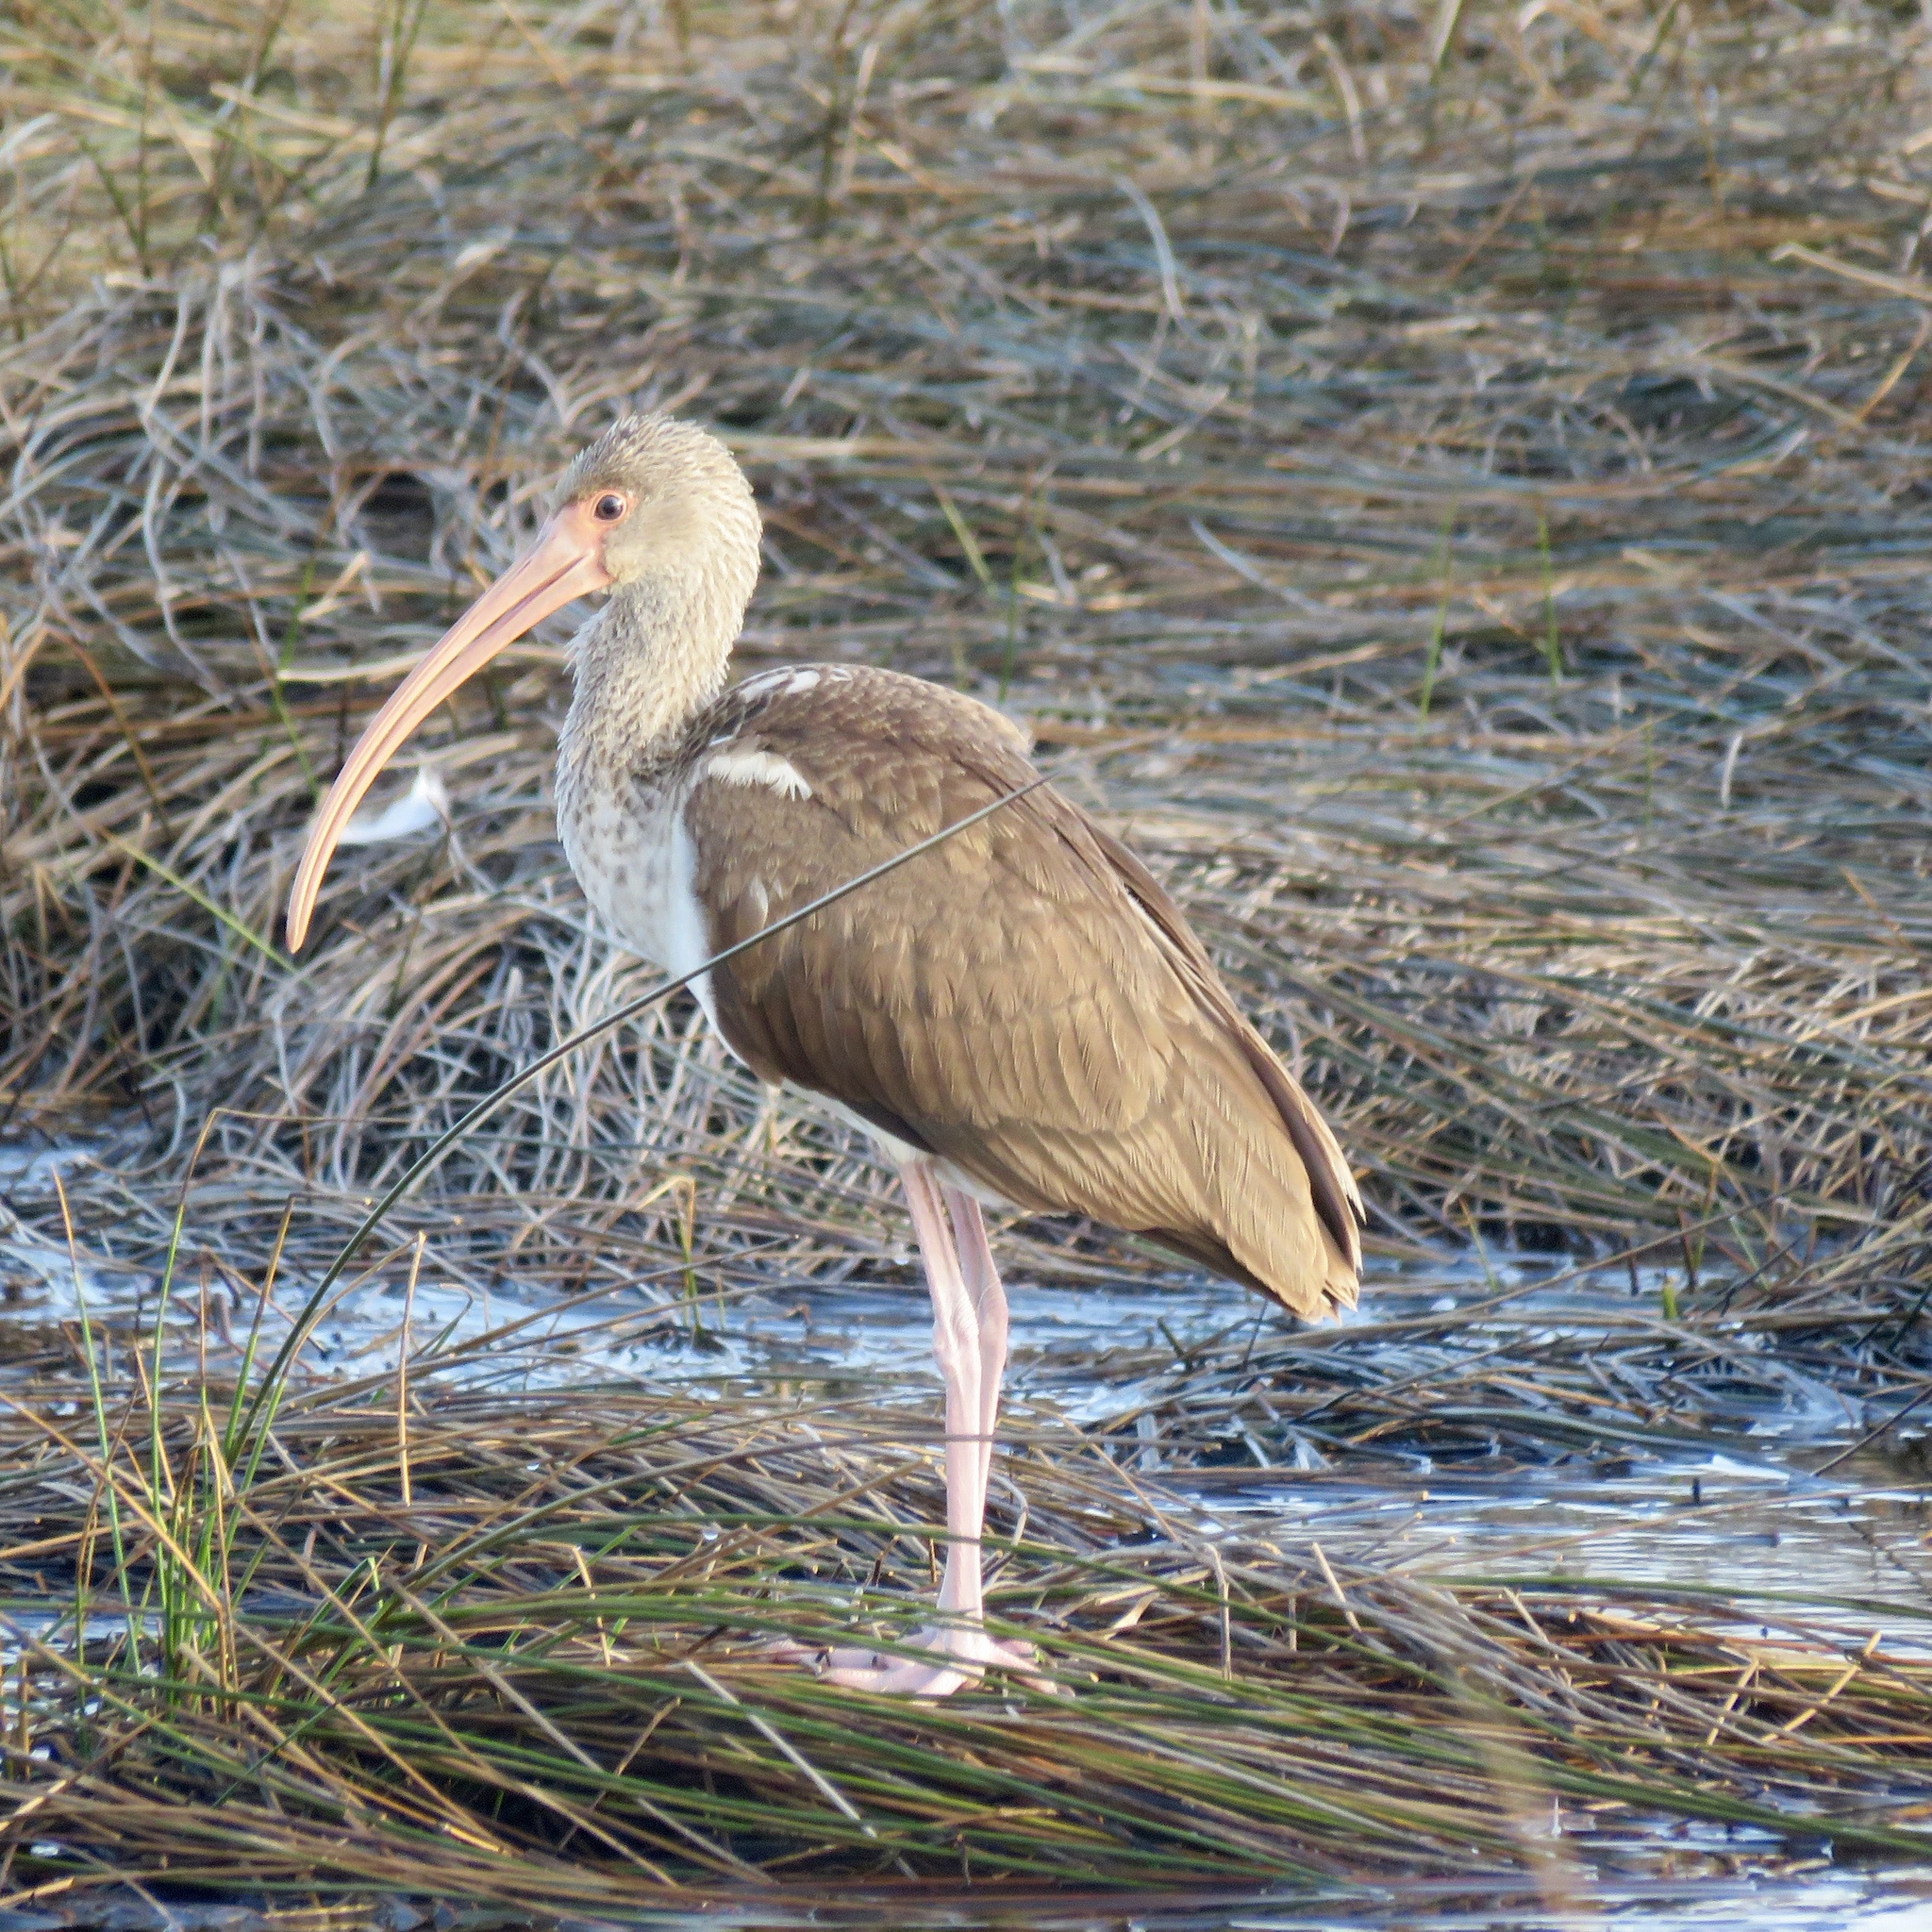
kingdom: Animalia
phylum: Chordata
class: Aves
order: Pelecaniformes
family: Threskiornithidae
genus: Eudocimus
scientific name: Eudocimus albus
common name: White ibis
